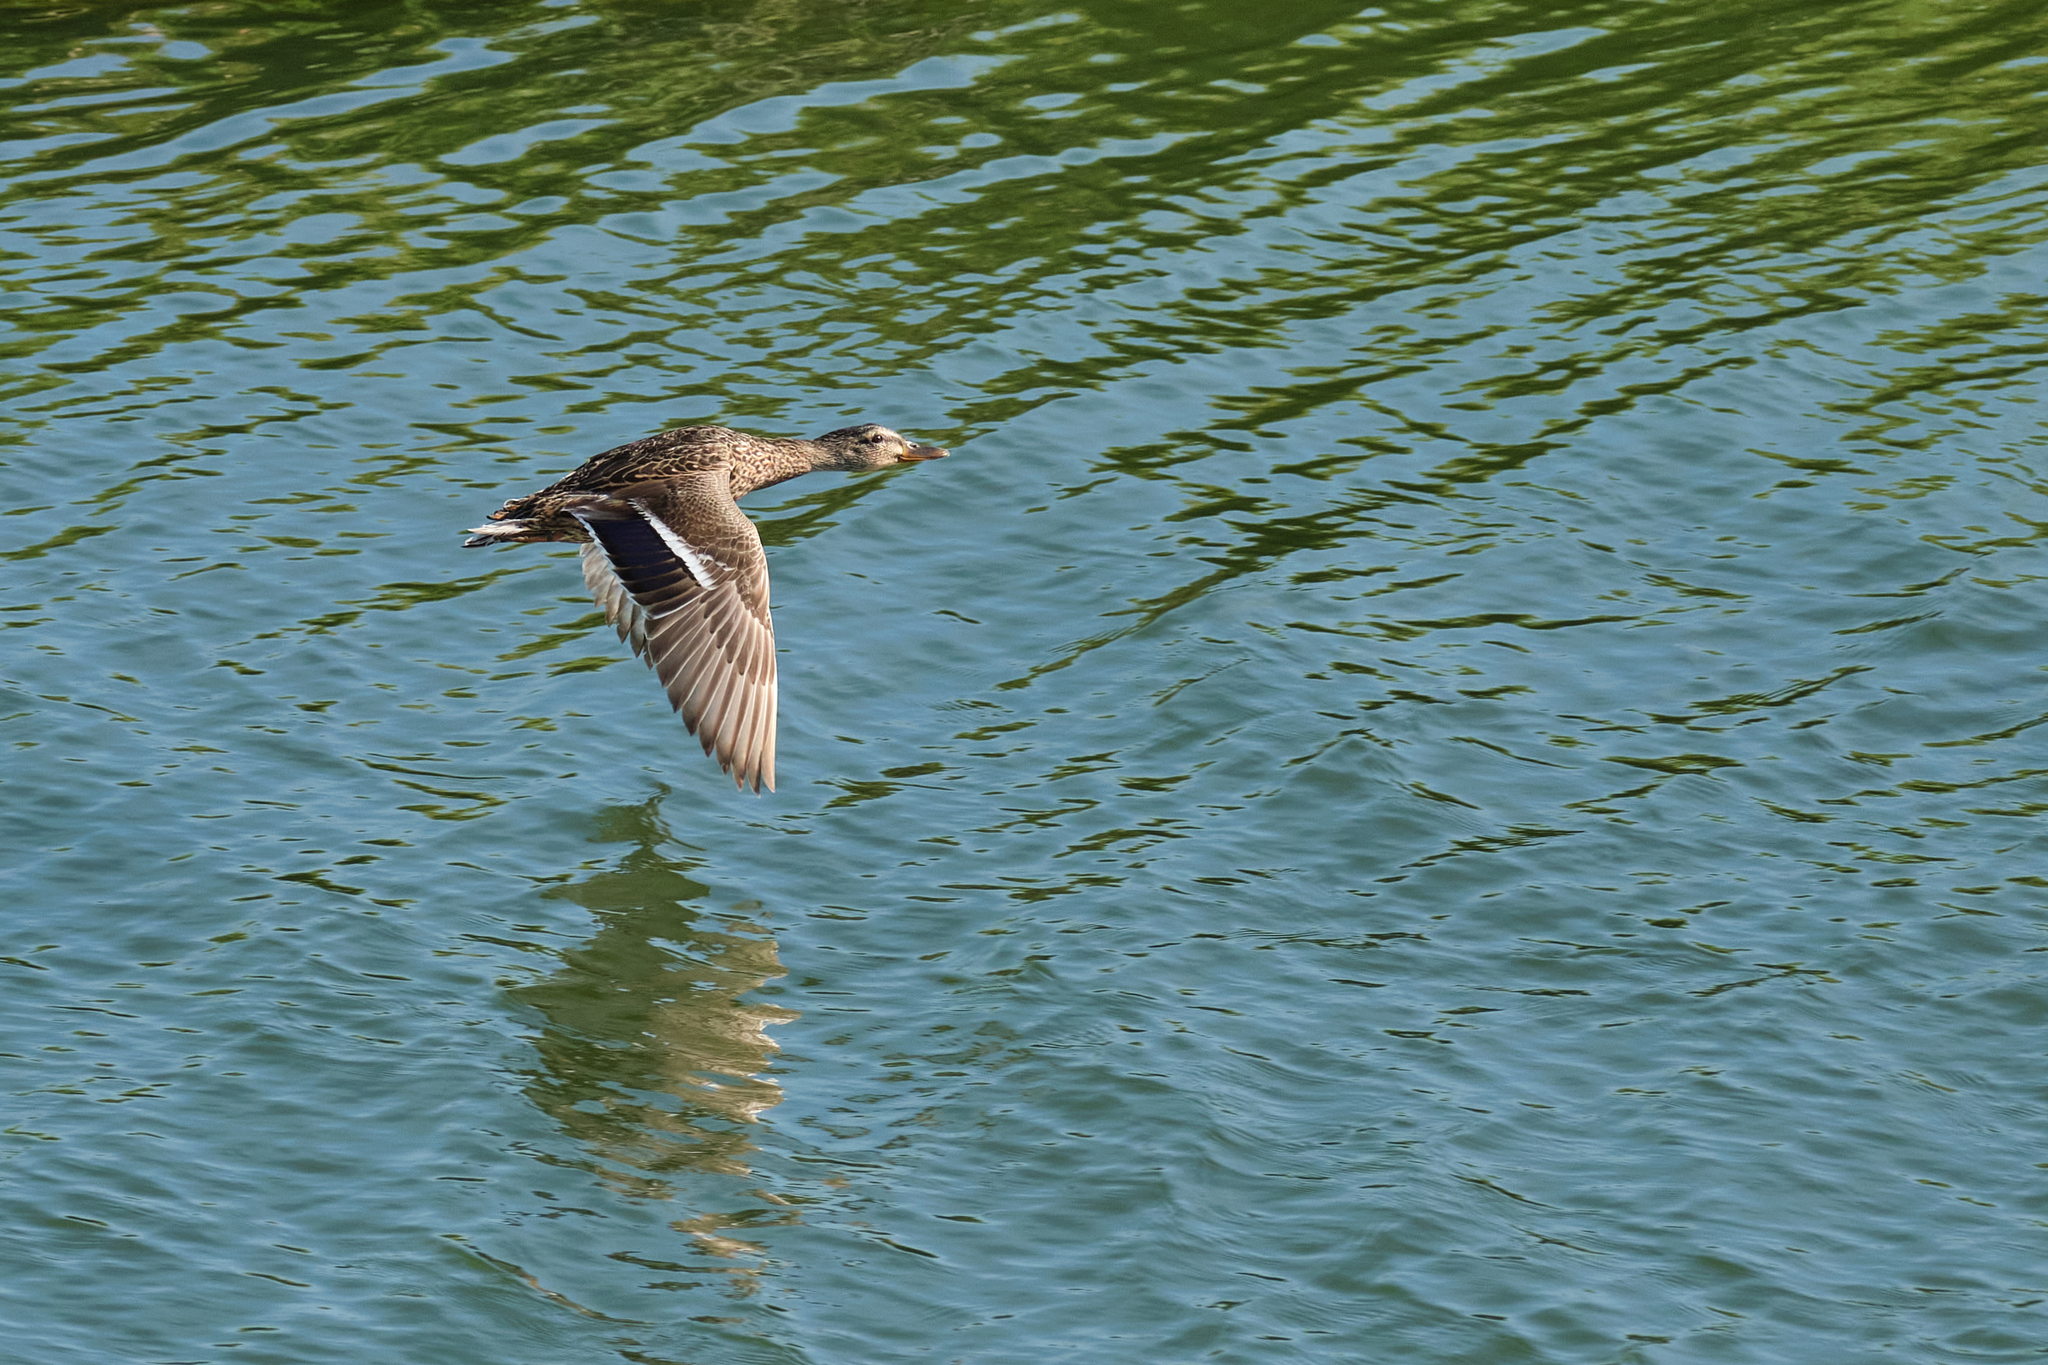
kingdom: Animalia
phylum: Chordata
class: Aves
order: Anseriformes
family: Anatidae
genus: Anas
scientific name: Anas platyrhynchos
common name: Mallard
